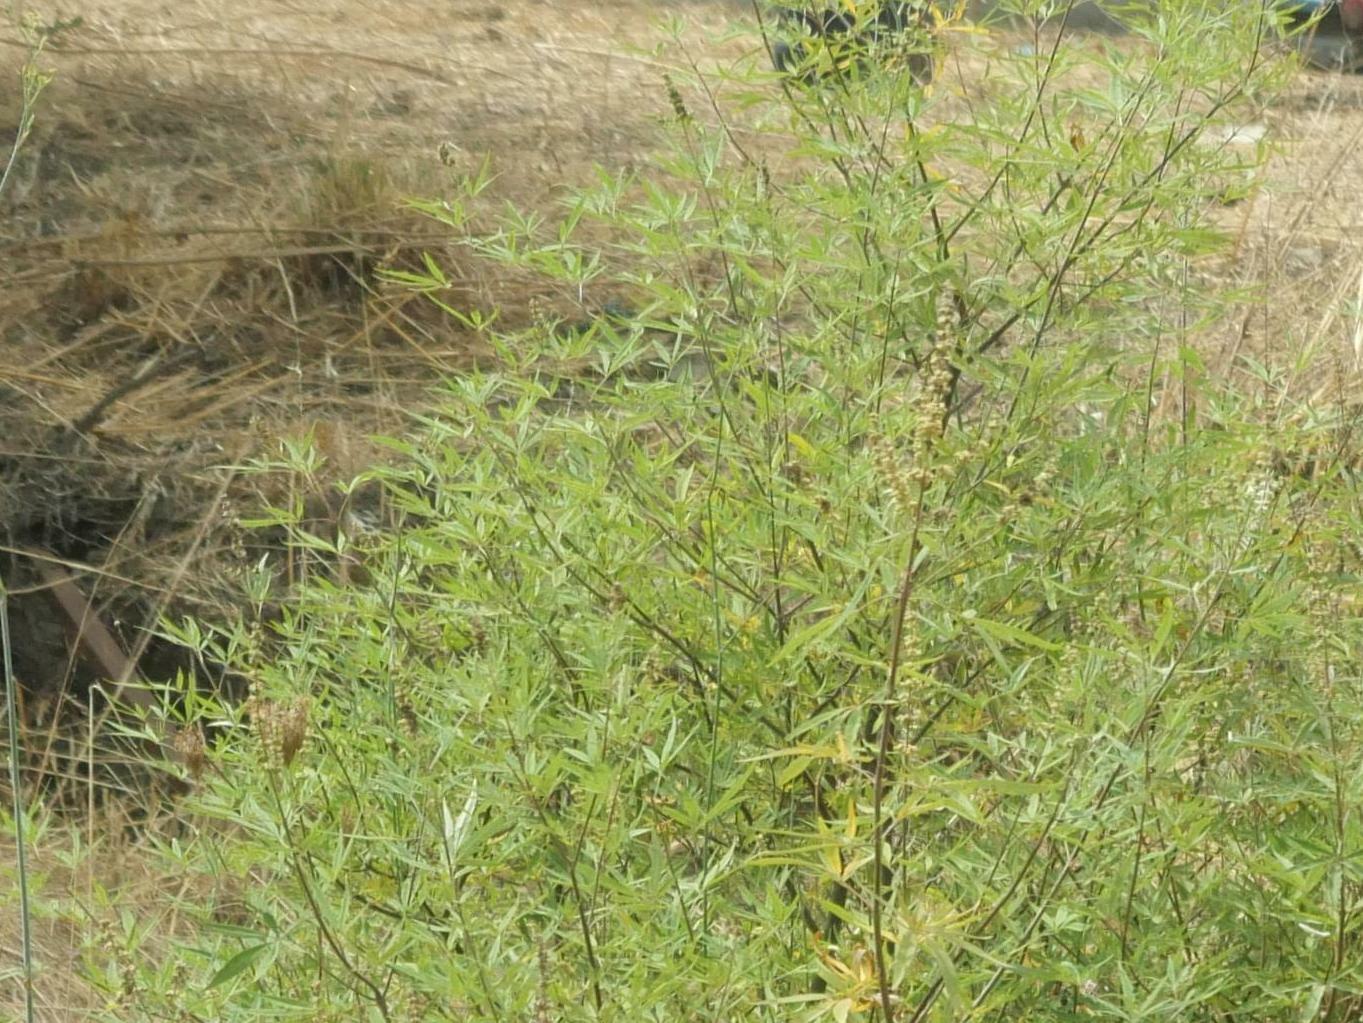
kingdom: Plantae
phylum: Tracheophyta
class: Magnoliopsida
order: Lamiales
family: Lamiaceae
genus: Vitex
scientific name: Vitex agnus-castus
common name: Chasteberry
